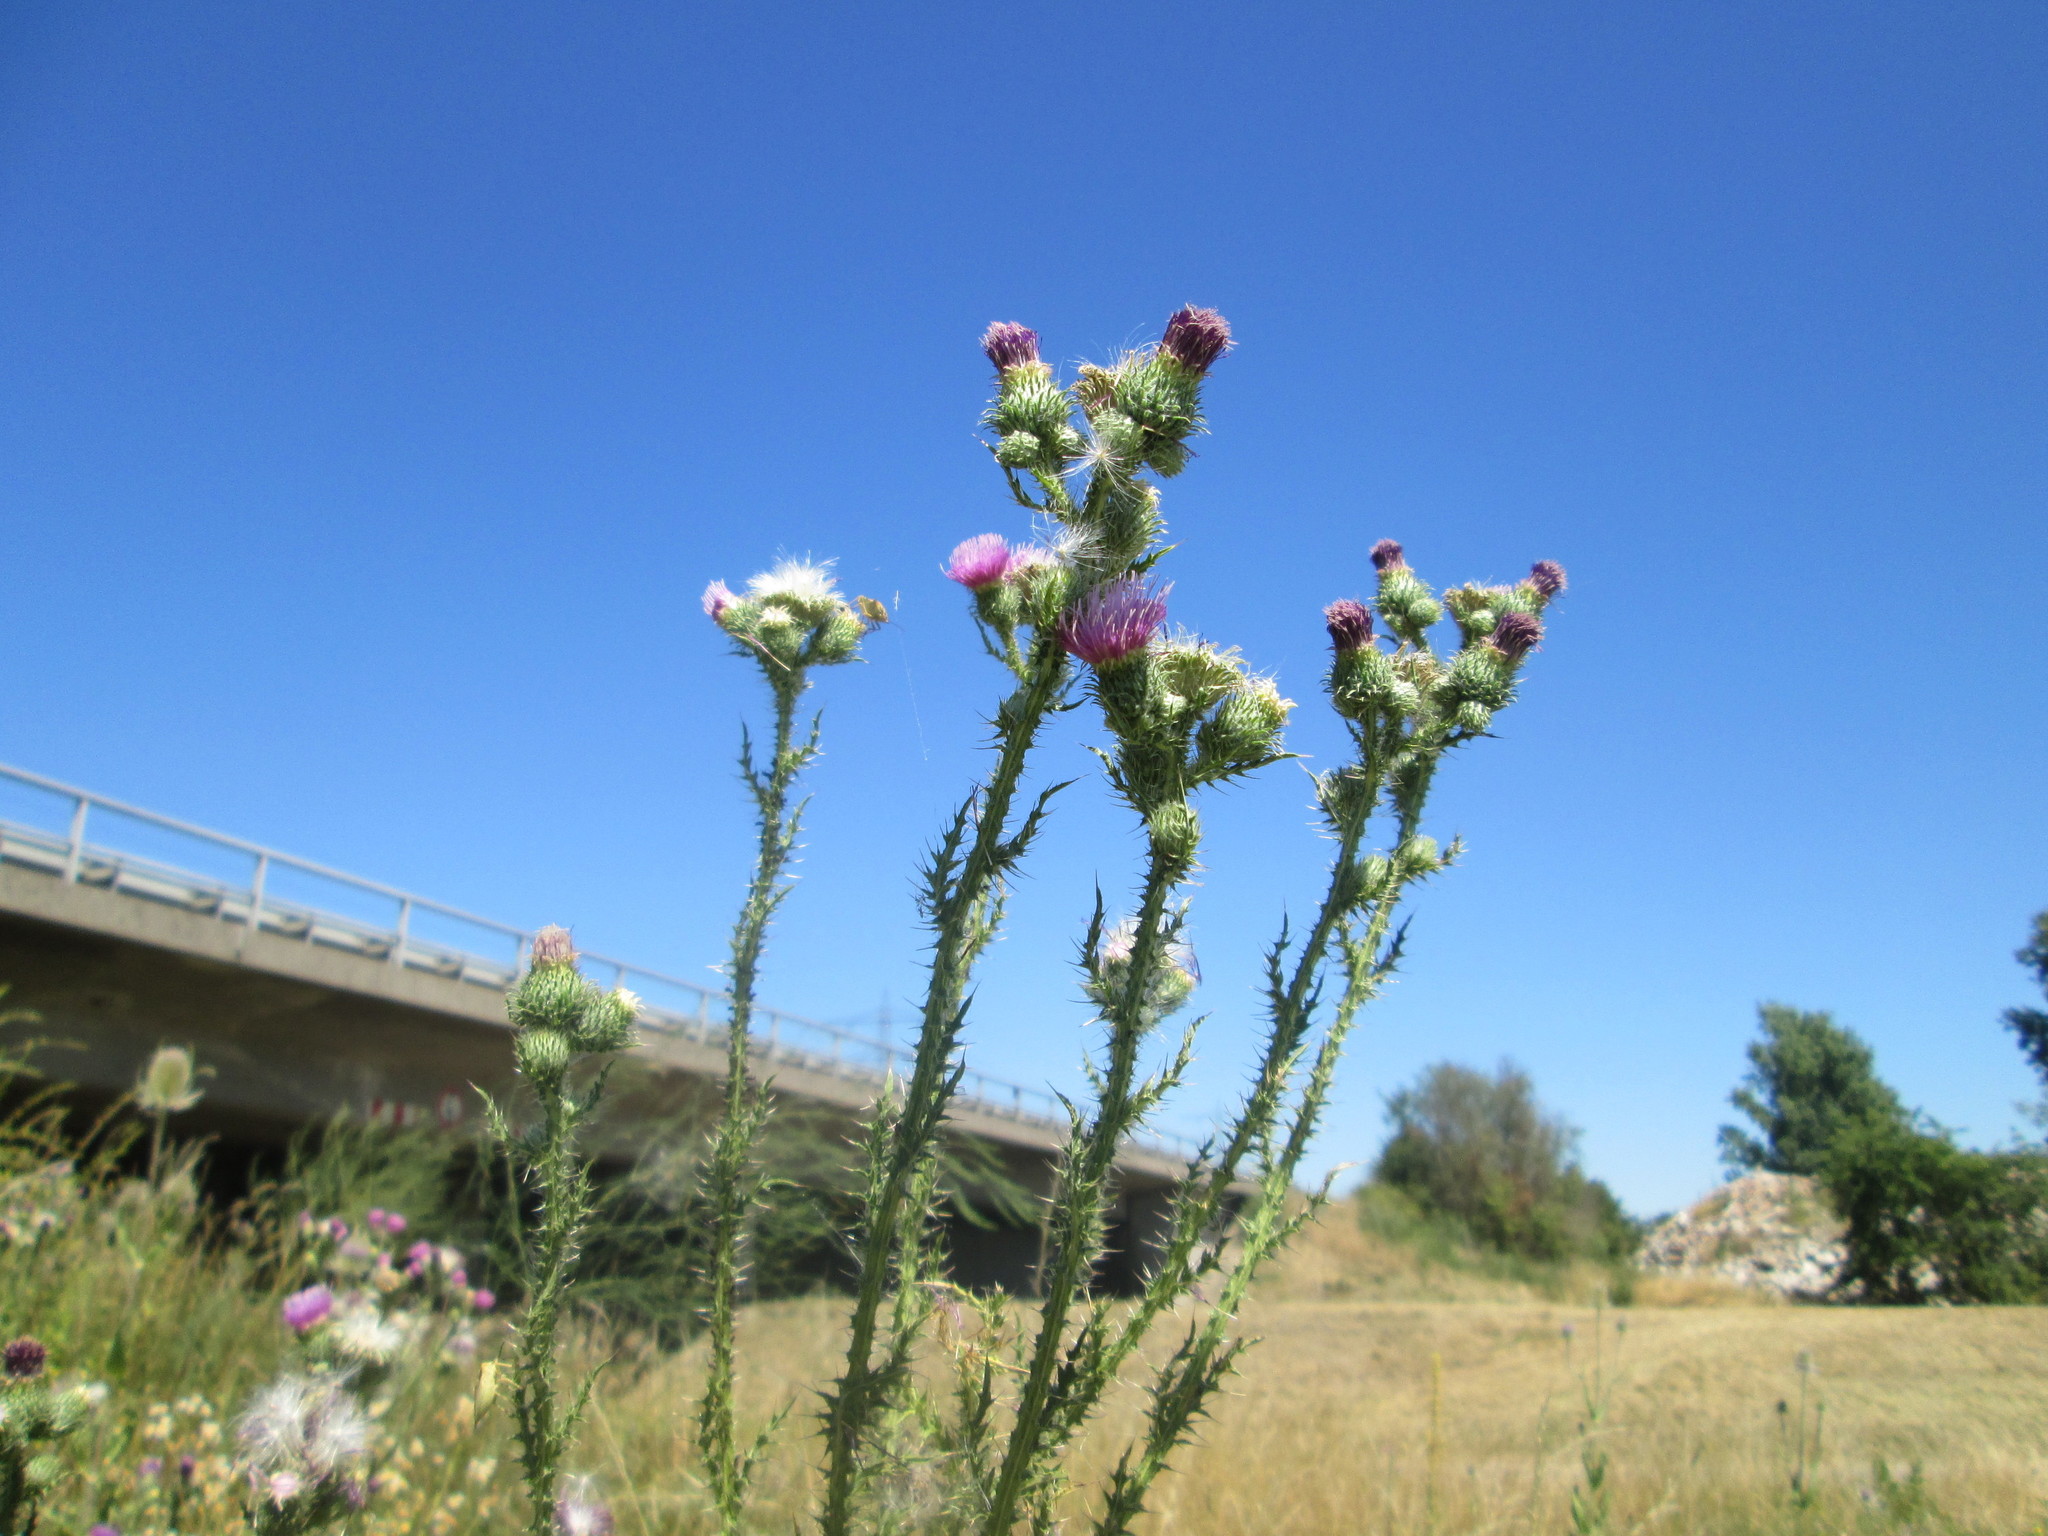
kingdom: Plantae
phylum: Tracheophyta
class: Magnoliopsida
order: Asterales
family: Asteraceae
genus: Carduus
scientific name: Carduus acanthoides
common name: Plumeless thistle
